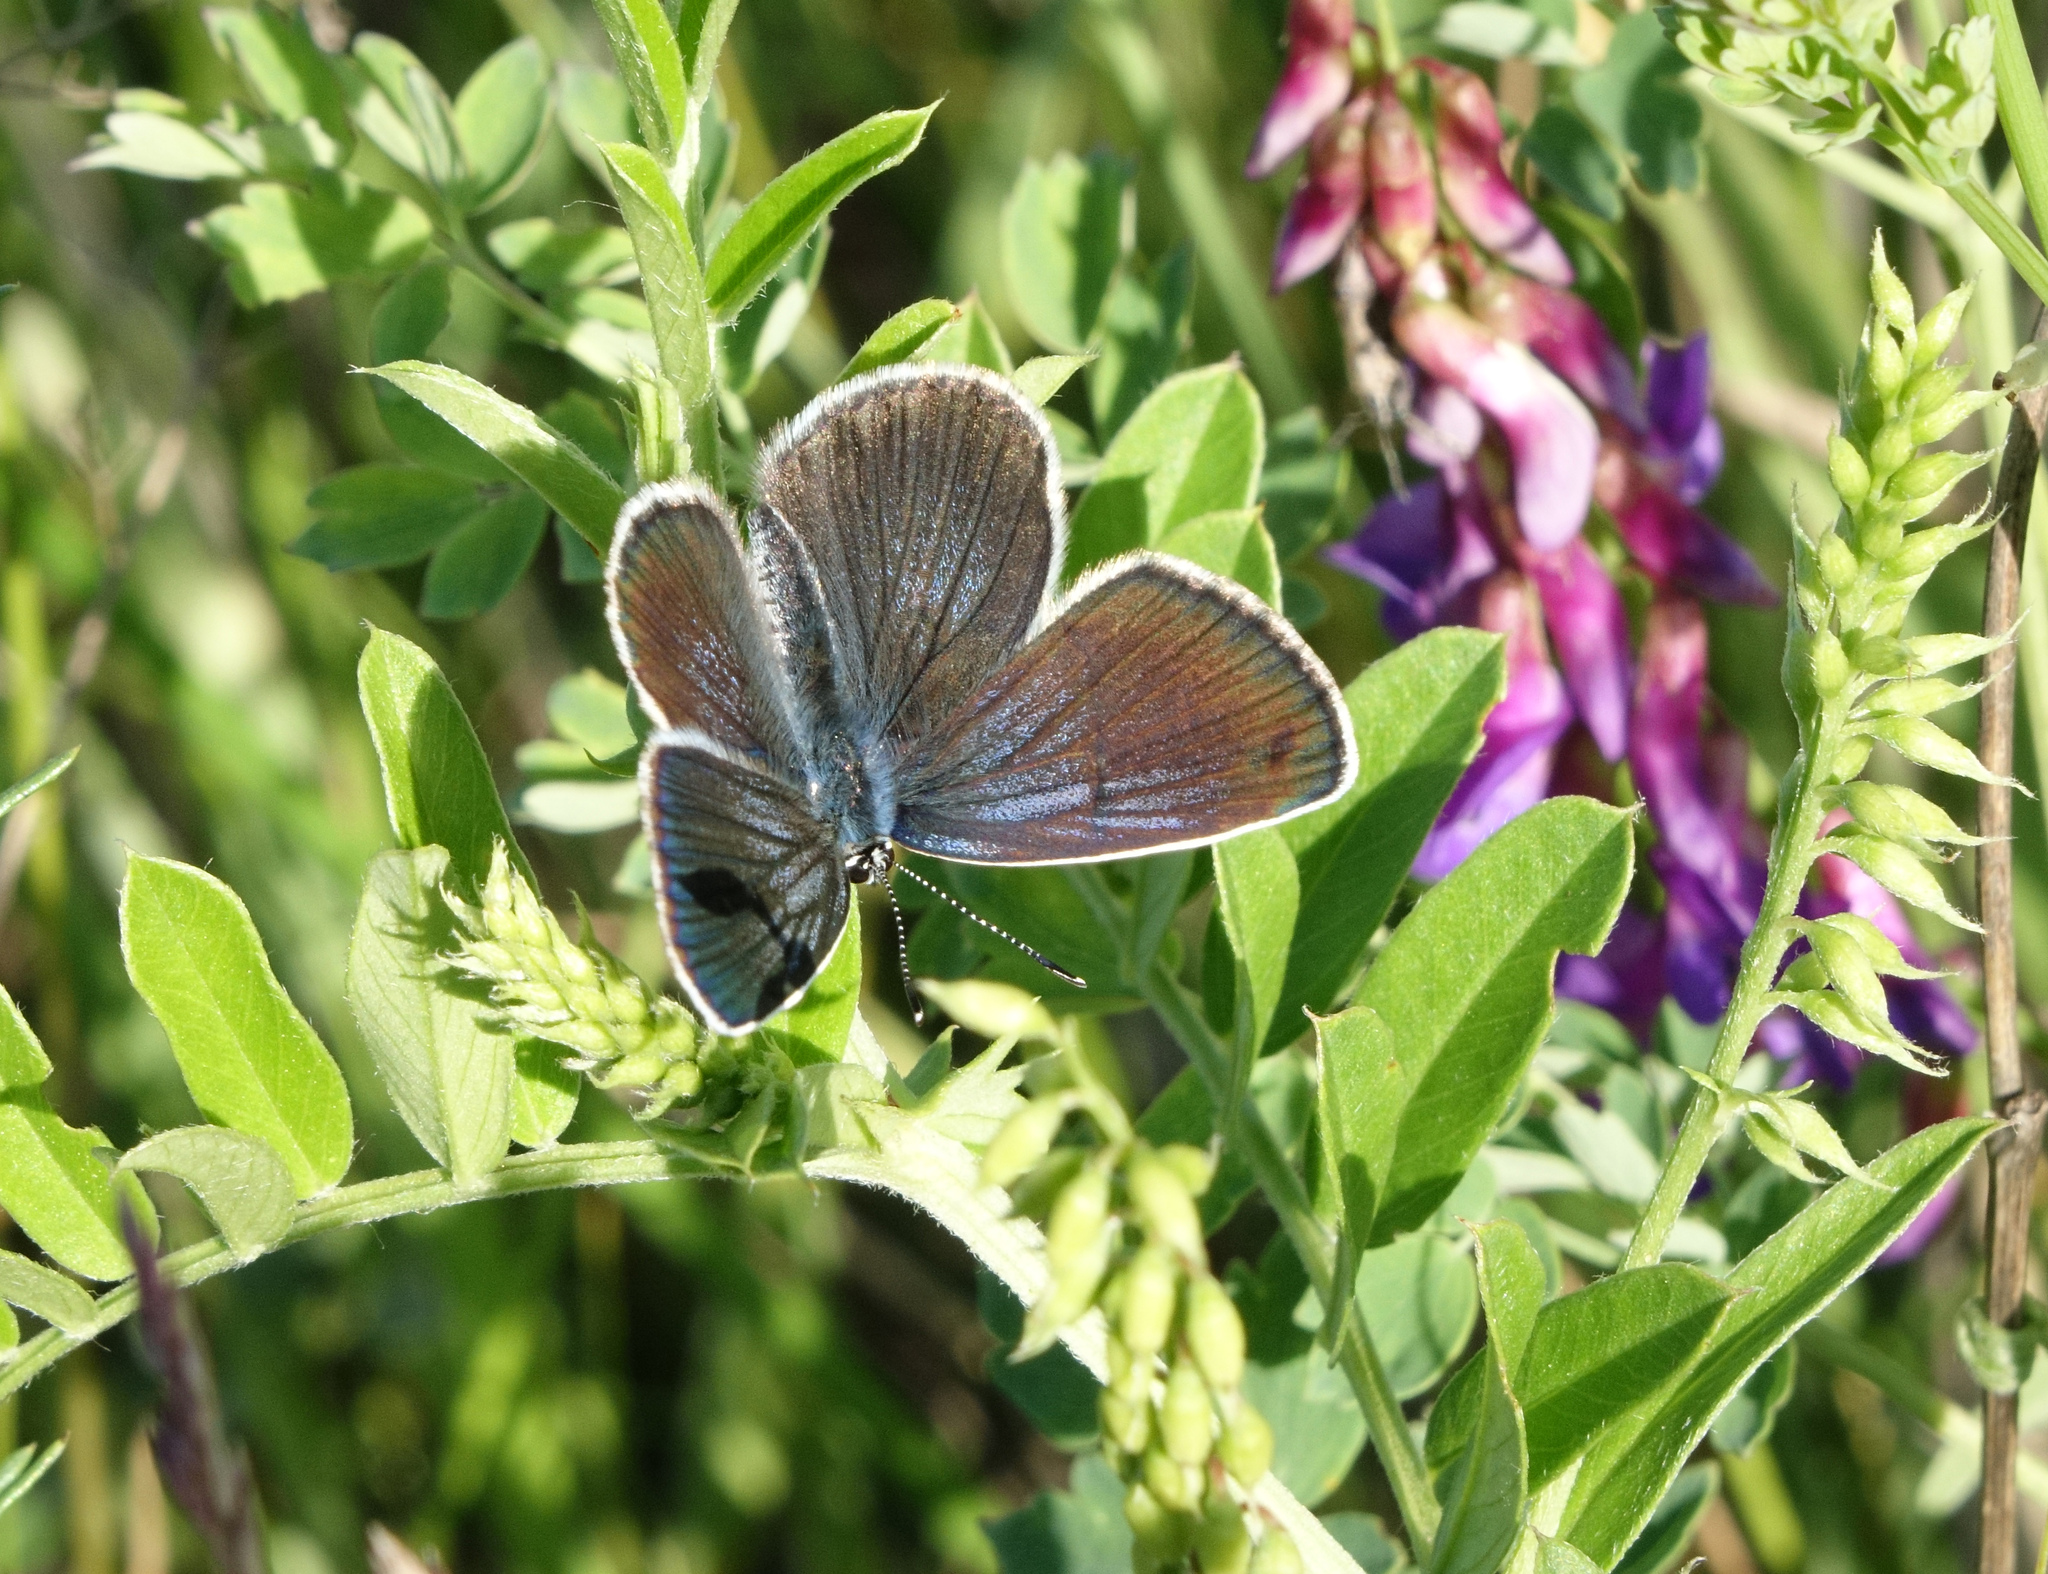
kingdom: Animalia
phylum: Arthropoda
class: Insecta
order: Lepidoptera
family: Lycaenidae
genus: Plebejus
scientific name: Plebejus subsolanus
